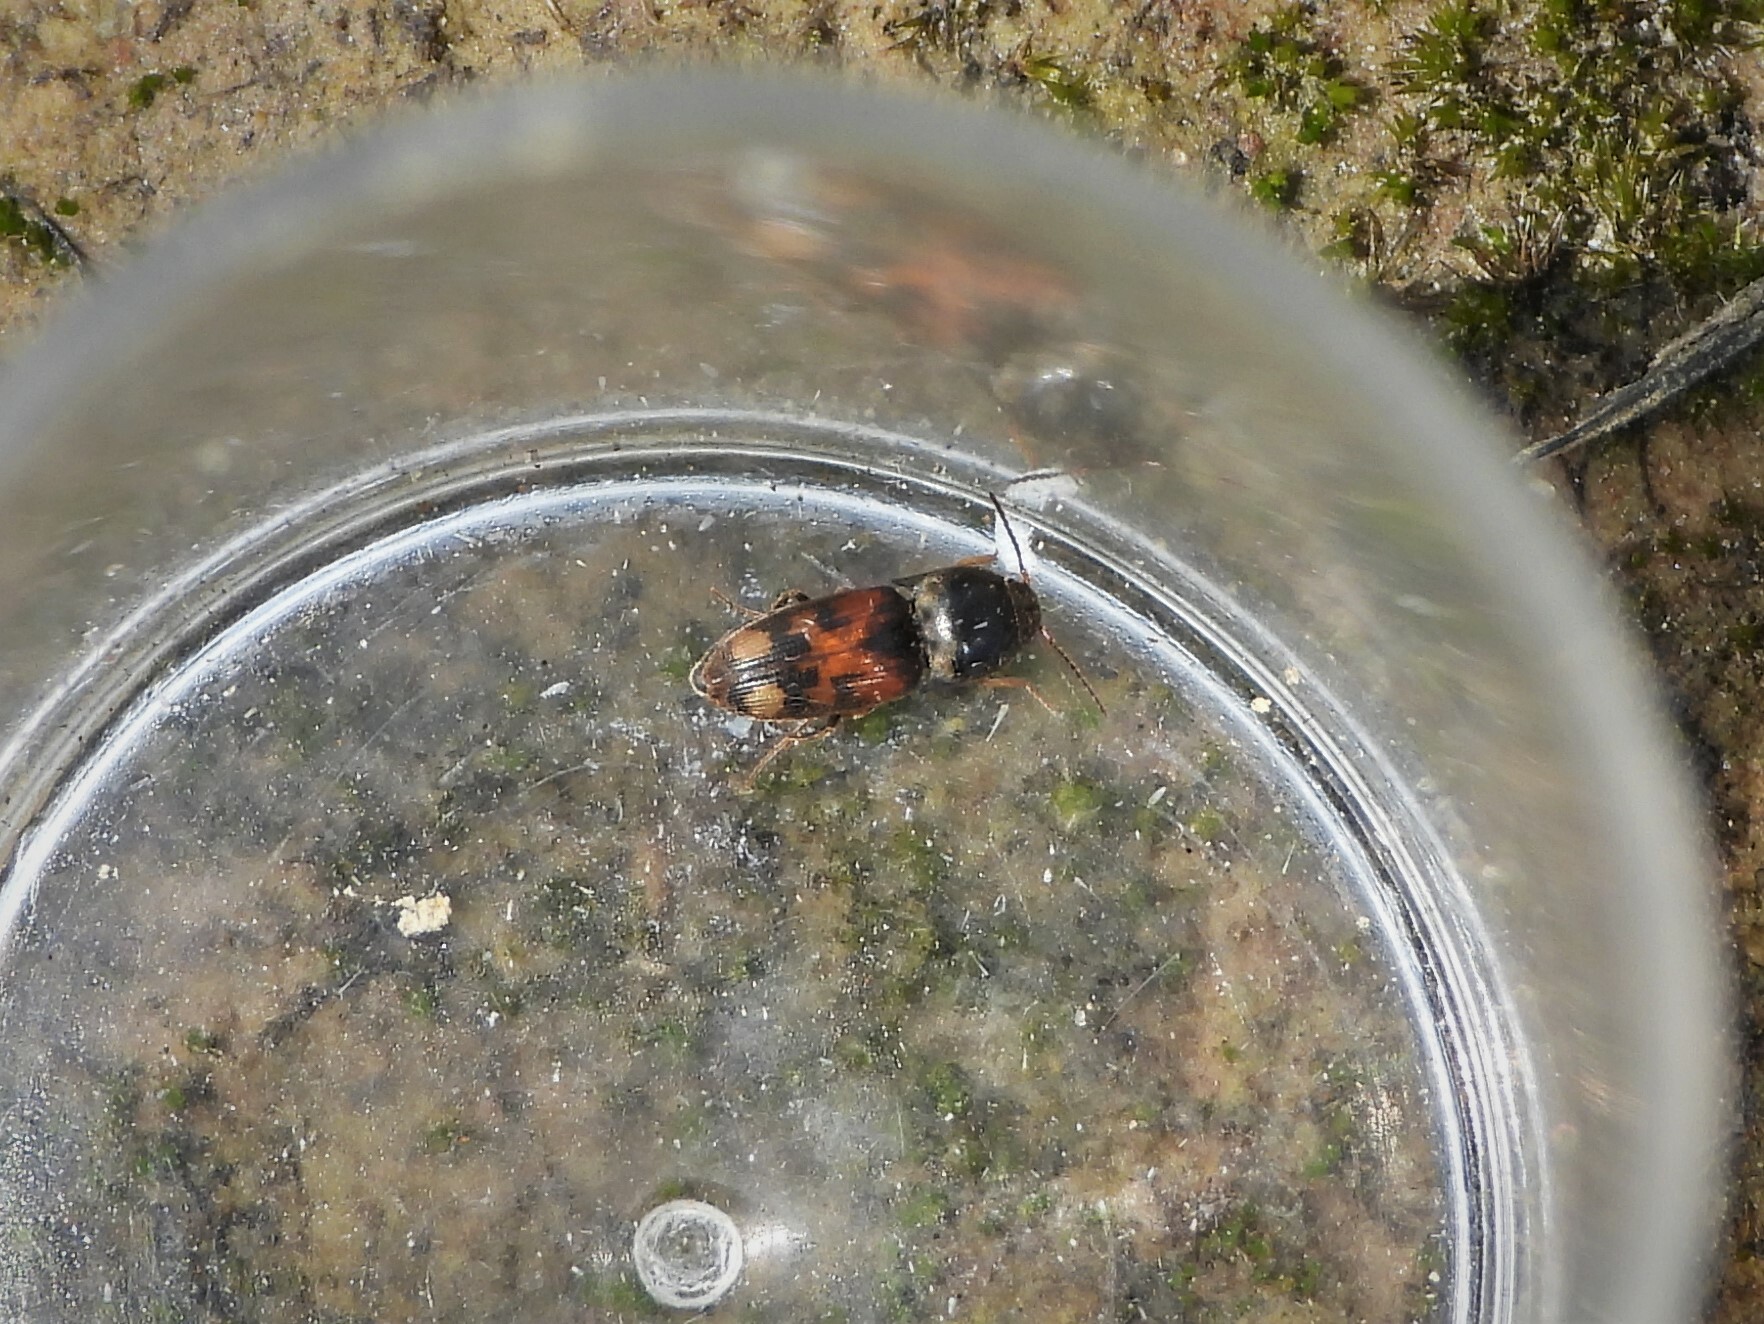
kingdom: Animalia
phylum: Arthropoda
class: Insecta
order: Coleoptera
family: Elateridae
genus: Drasterius
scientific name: Drasterius bimaculatus
